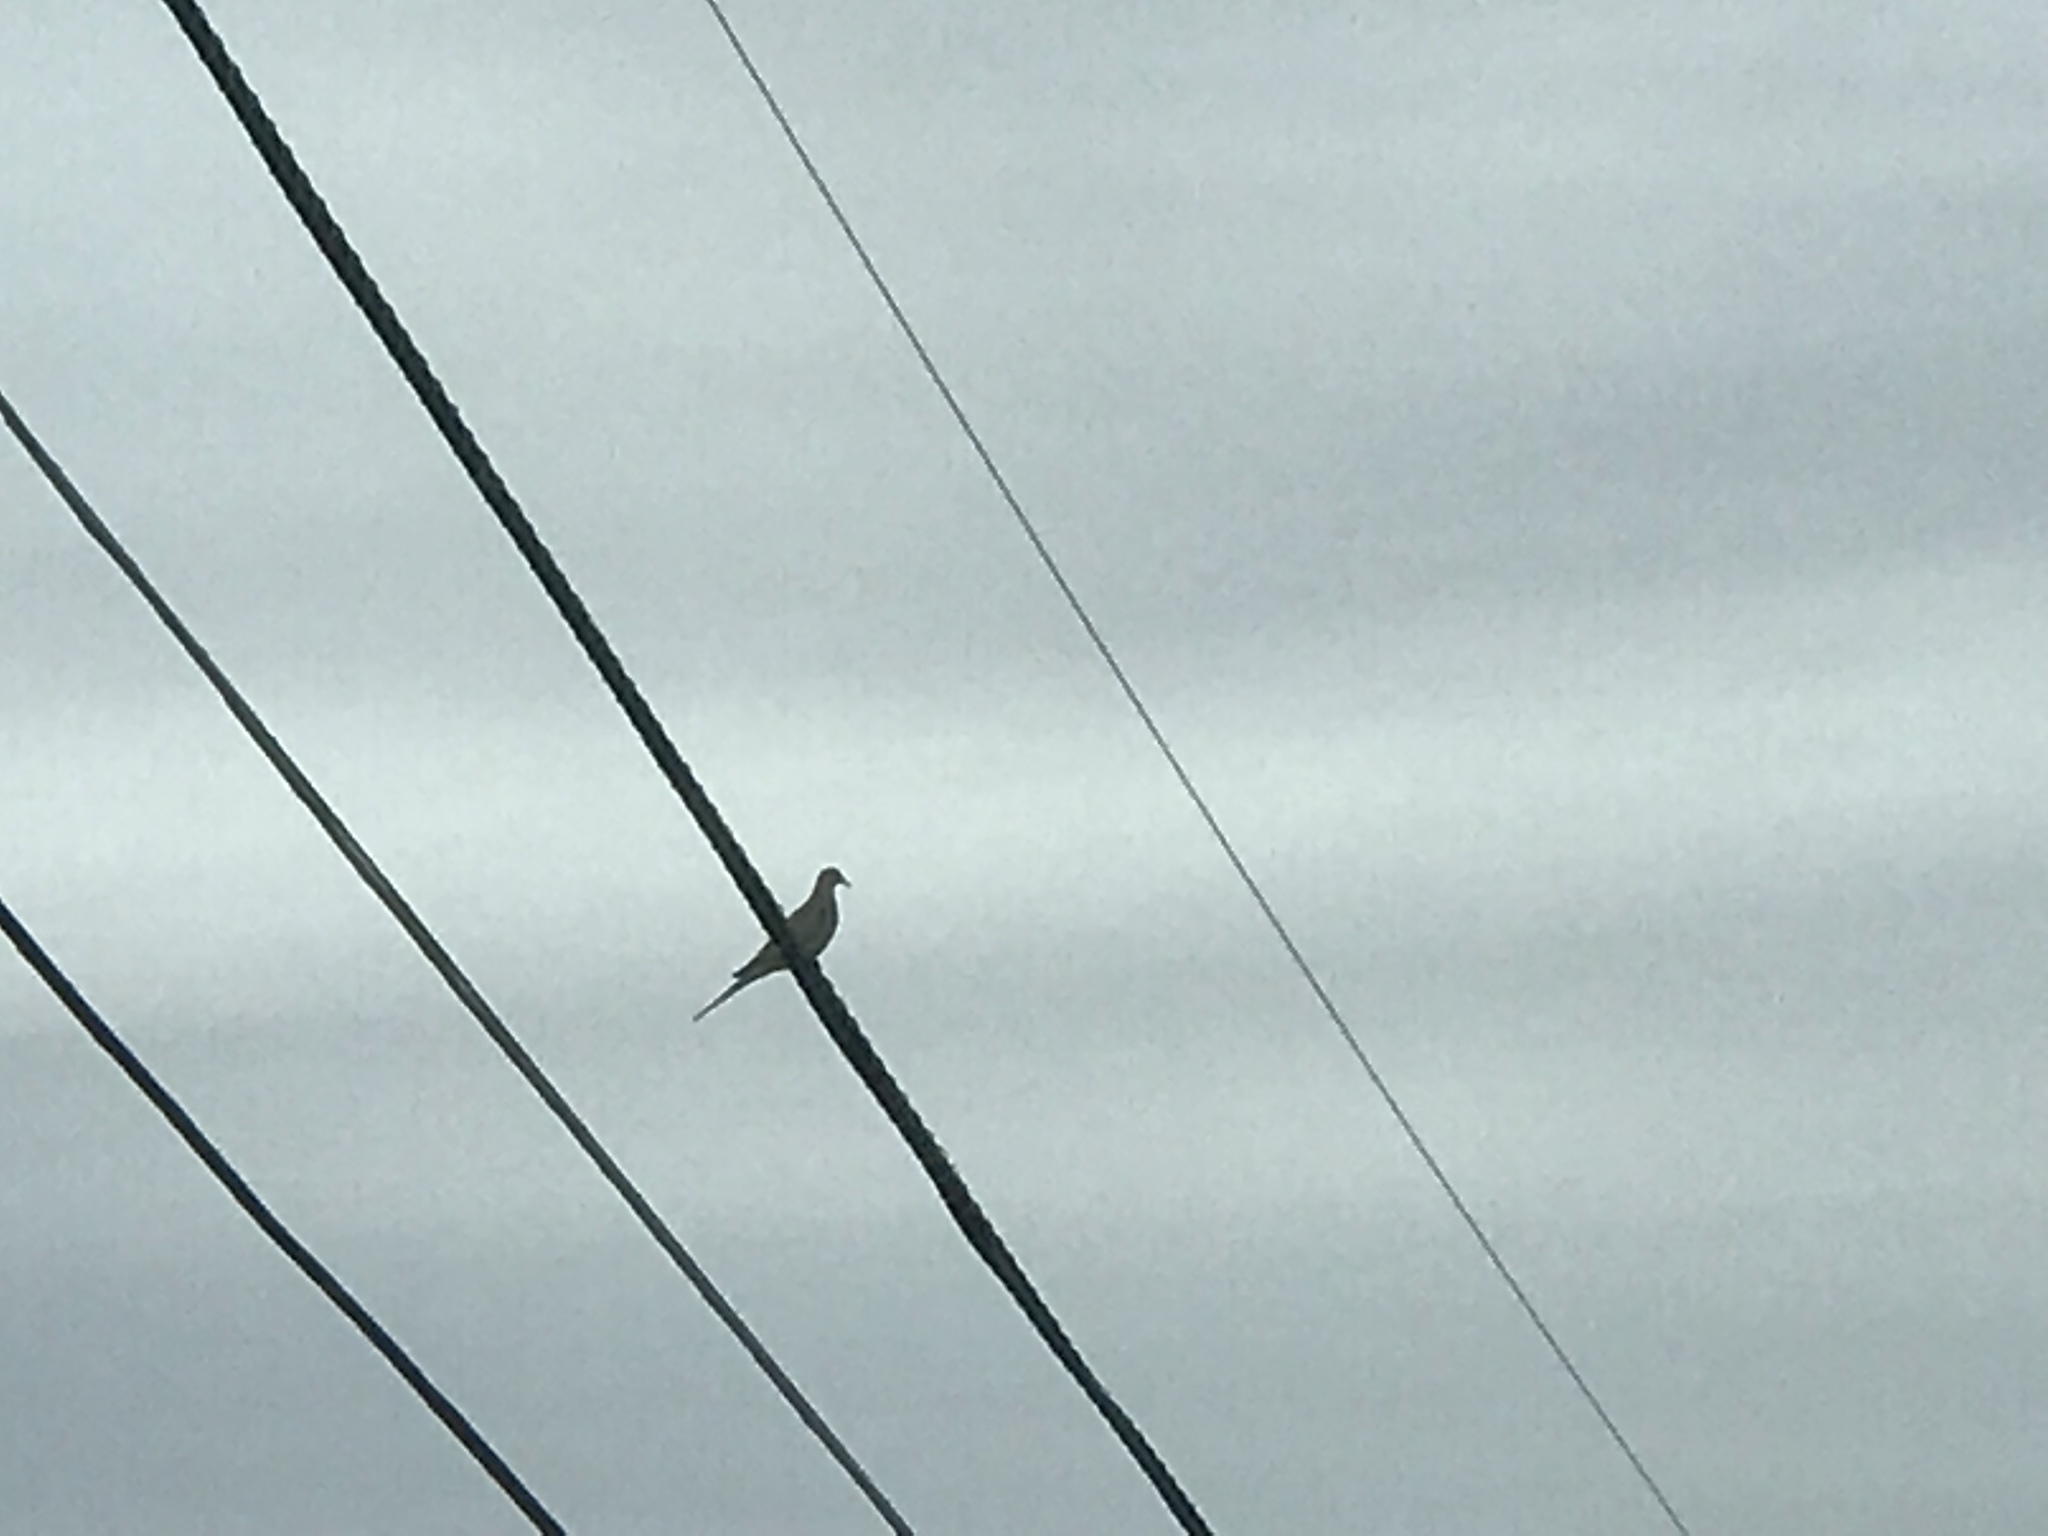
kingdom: Animalia
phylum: Chordata
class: Aves
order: Columbiformes
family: Columbidae
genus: Zenaida
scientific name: Zenaida macroura
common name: Mourning dove
